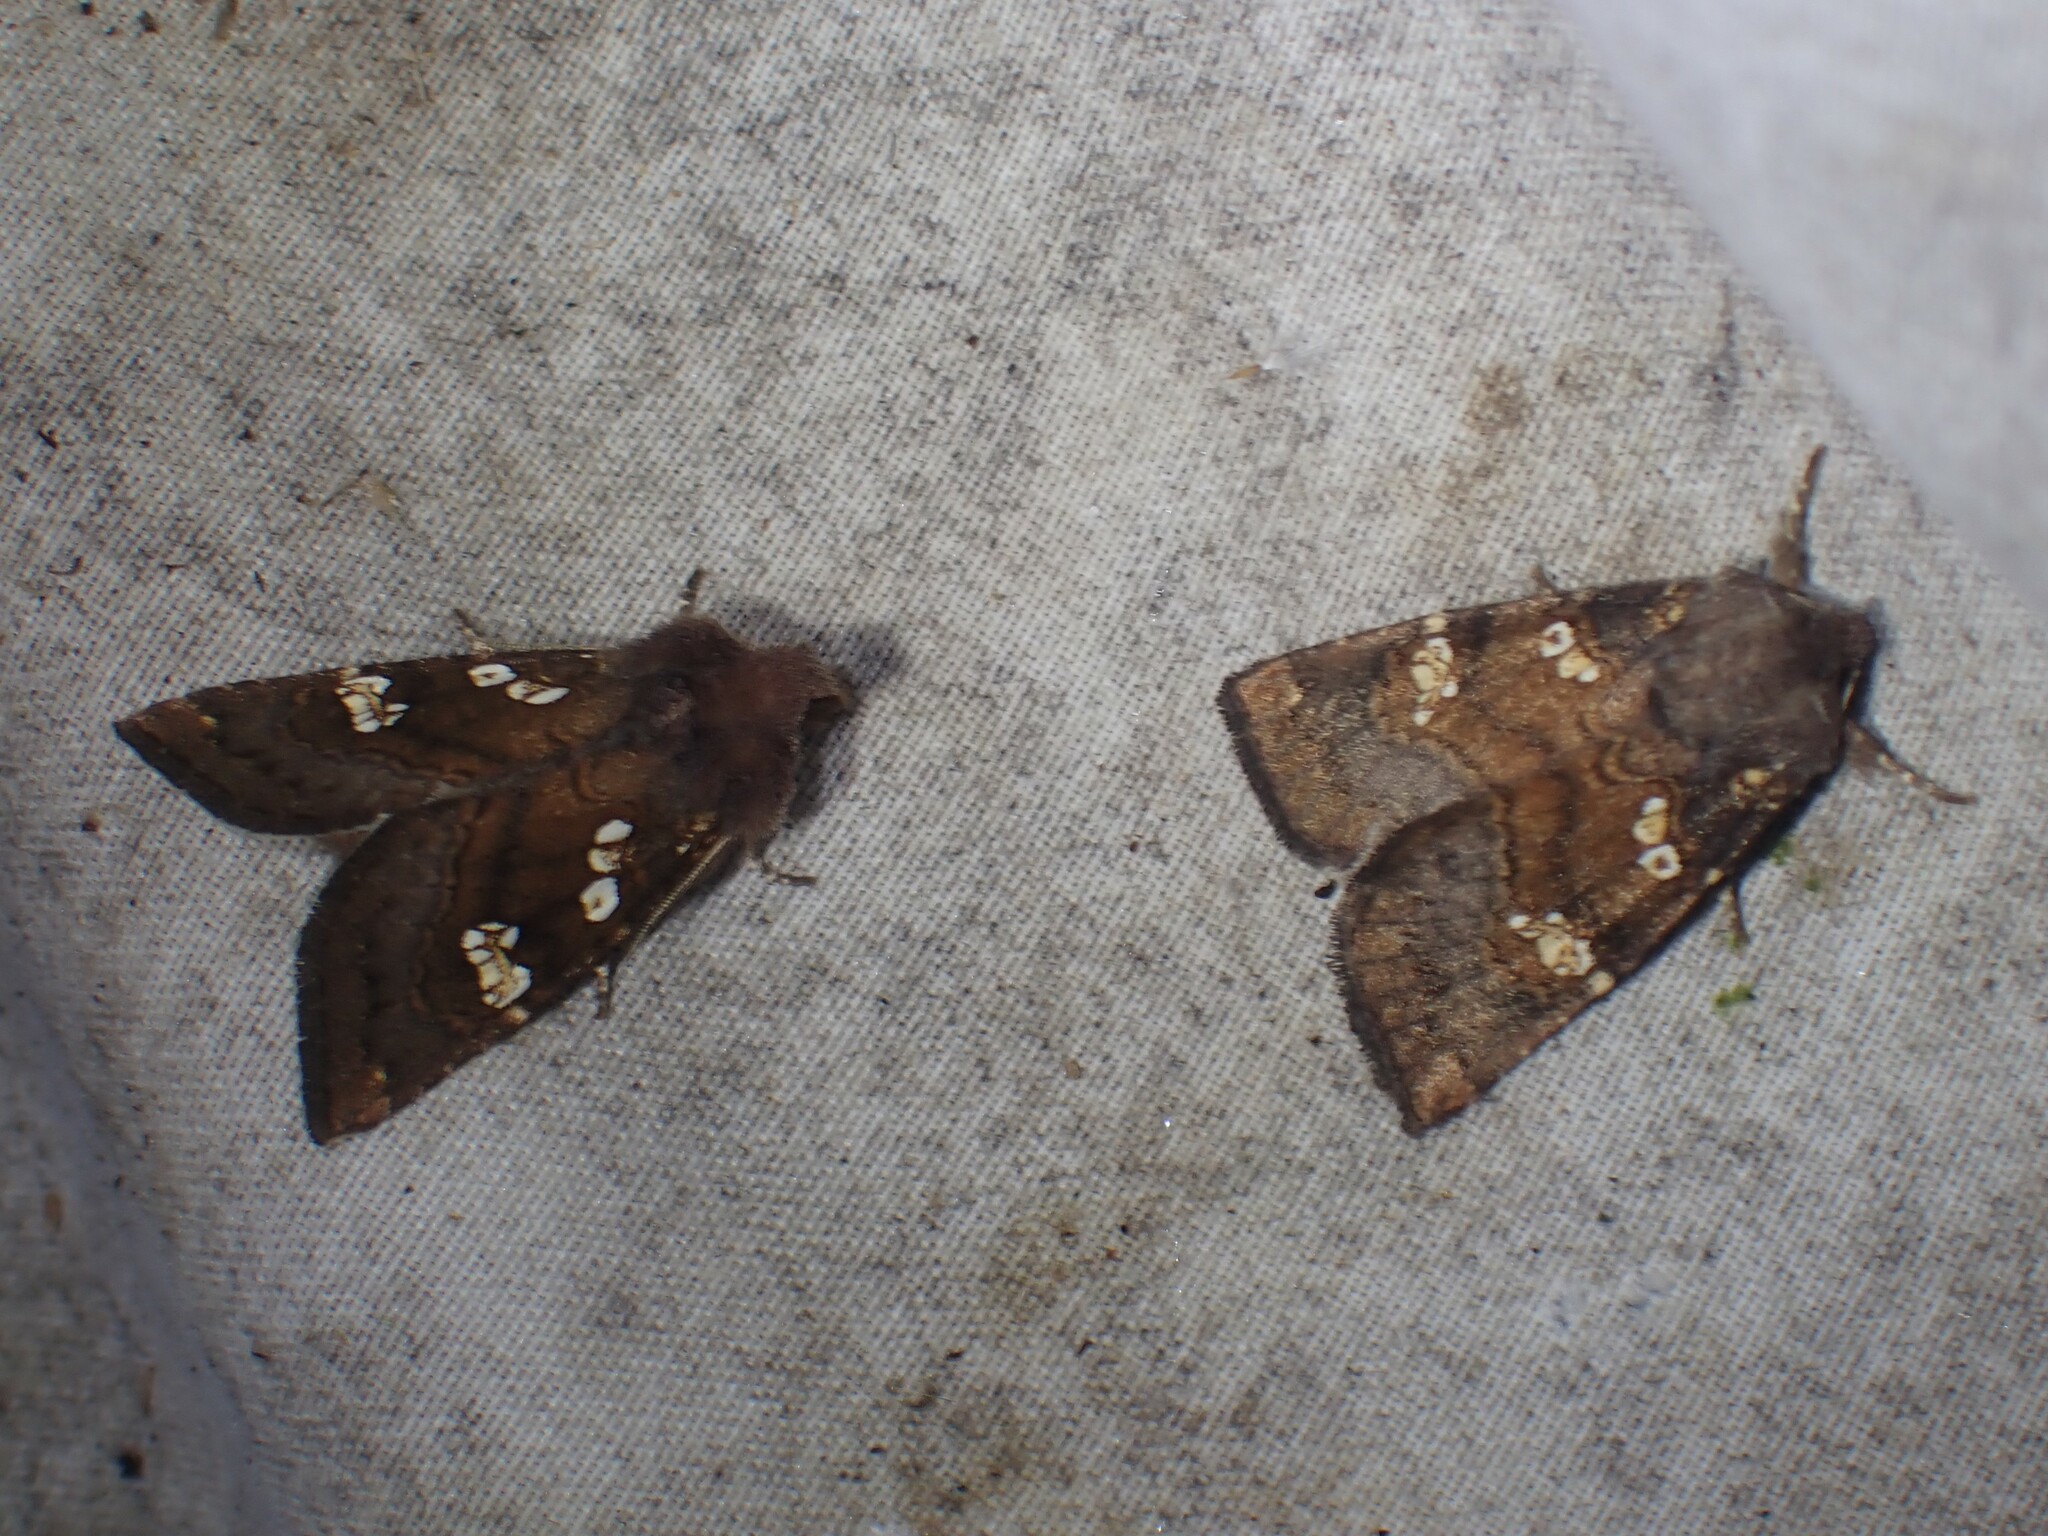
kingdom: Animalia
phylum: Arthropoda
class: Insecta
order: Lepidoptera
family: Noctuidae
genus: Papaipema
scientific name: Papaipema unimoda
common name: Meadow rue borer moth
